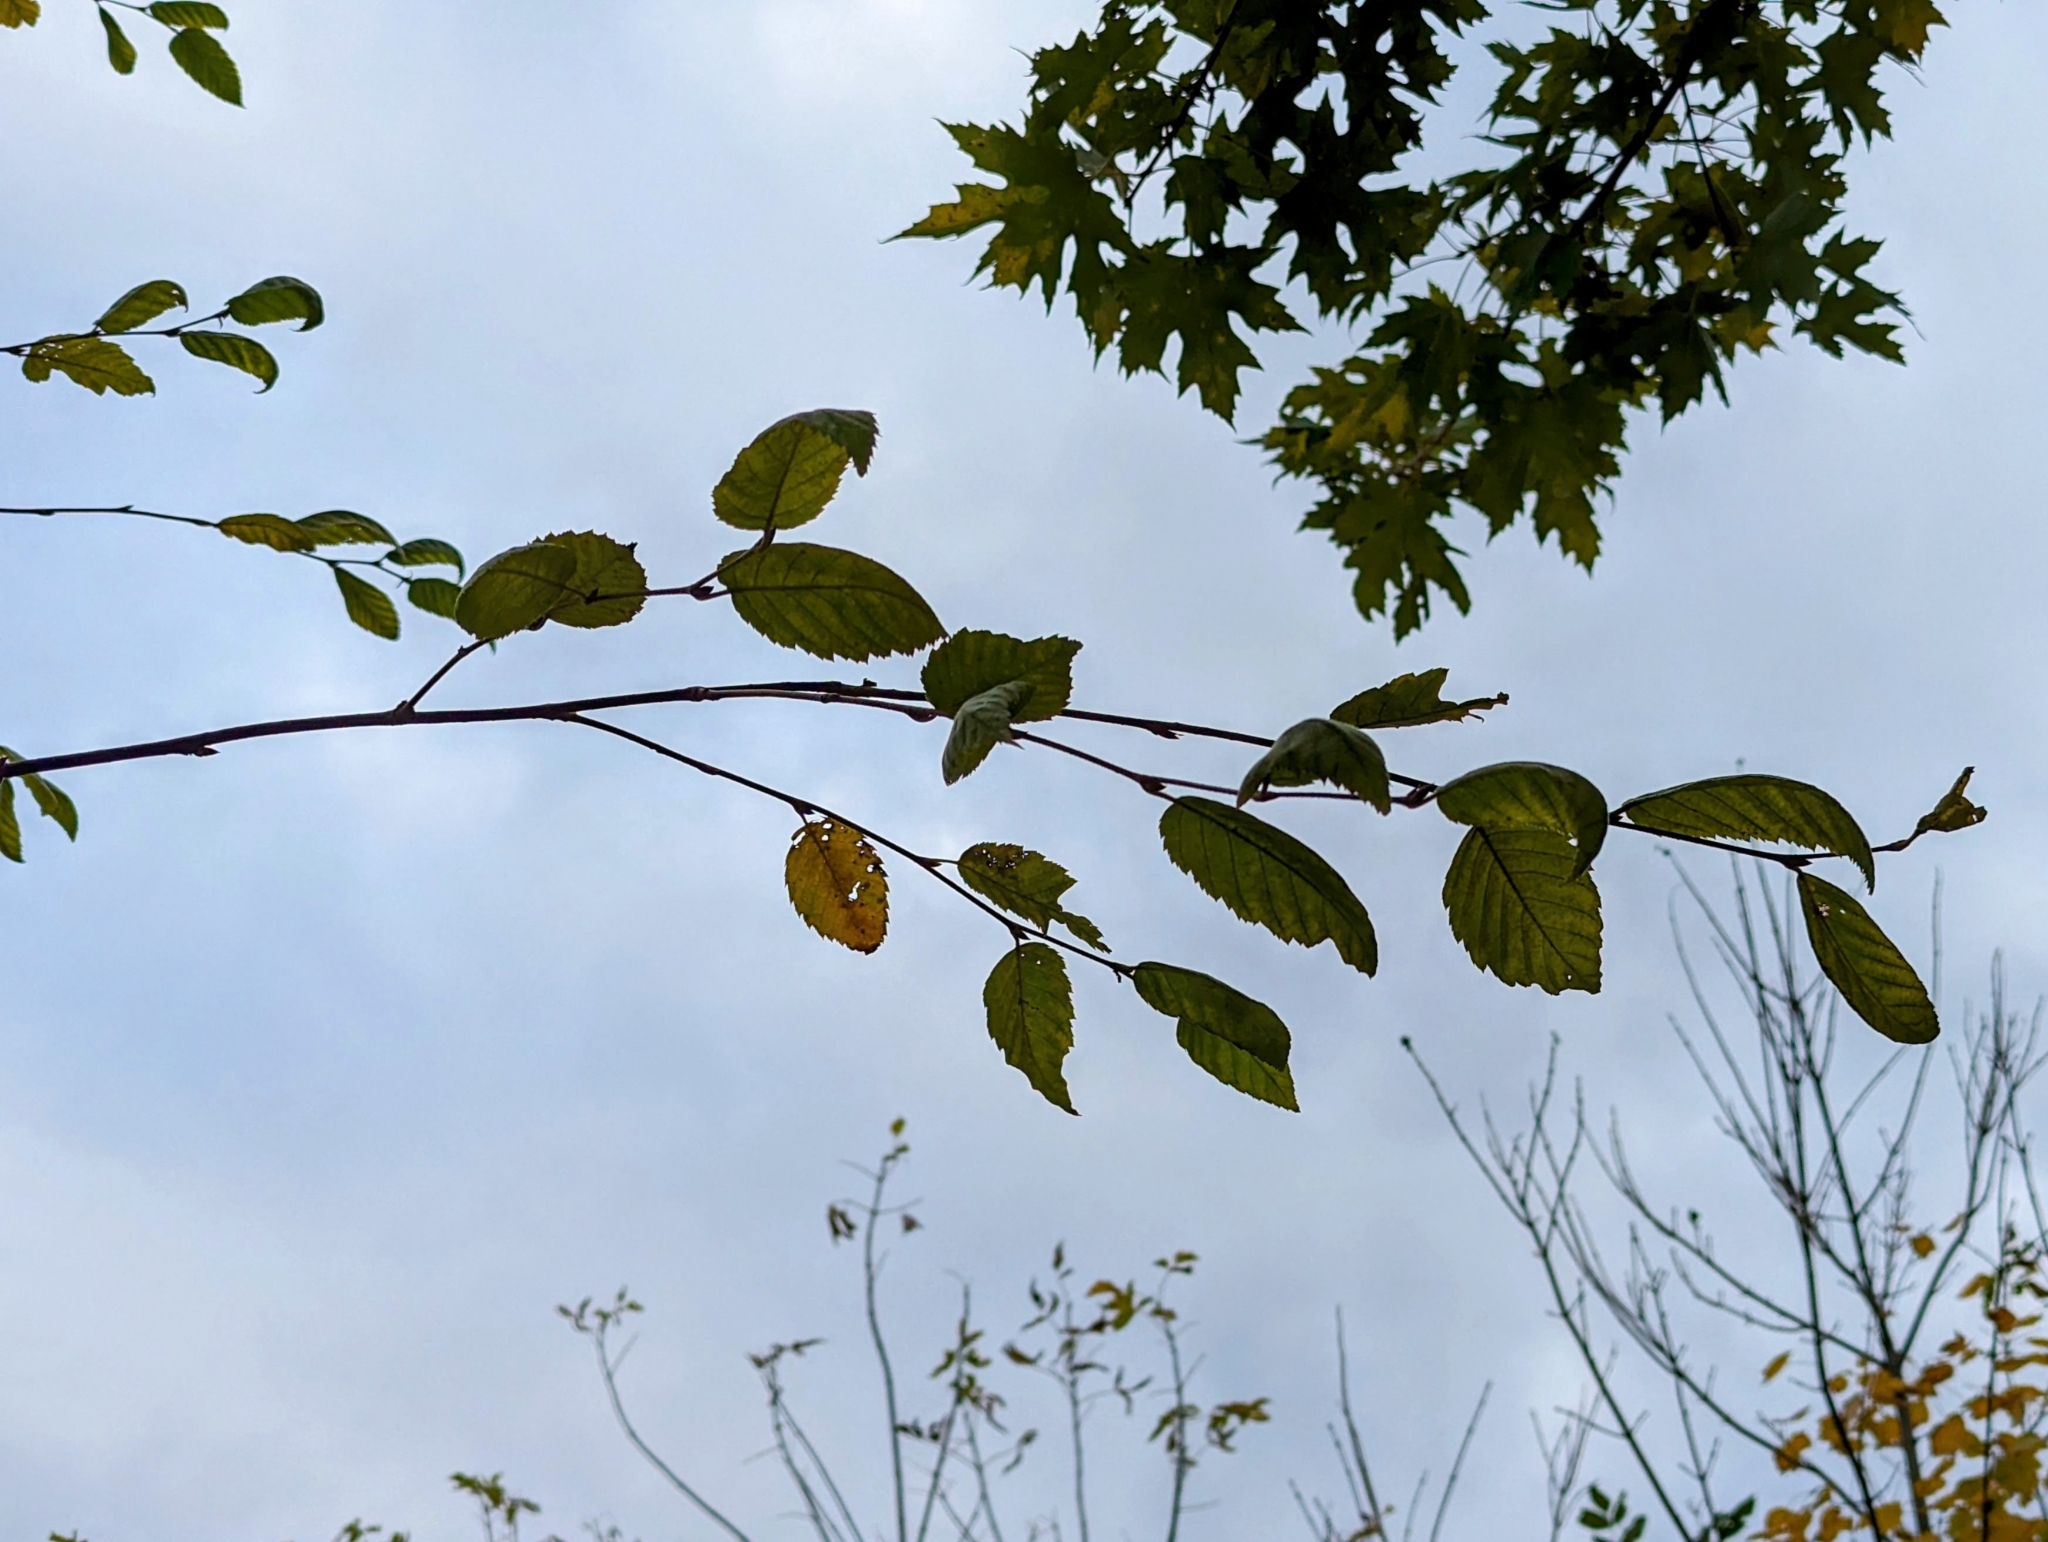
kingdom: Plantae
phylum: Tracheophyta
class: Magnoliopsida
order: Fagales
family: Betulaceae
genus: Betula
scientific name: Betula alleghaniensis
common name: Yellow birch
